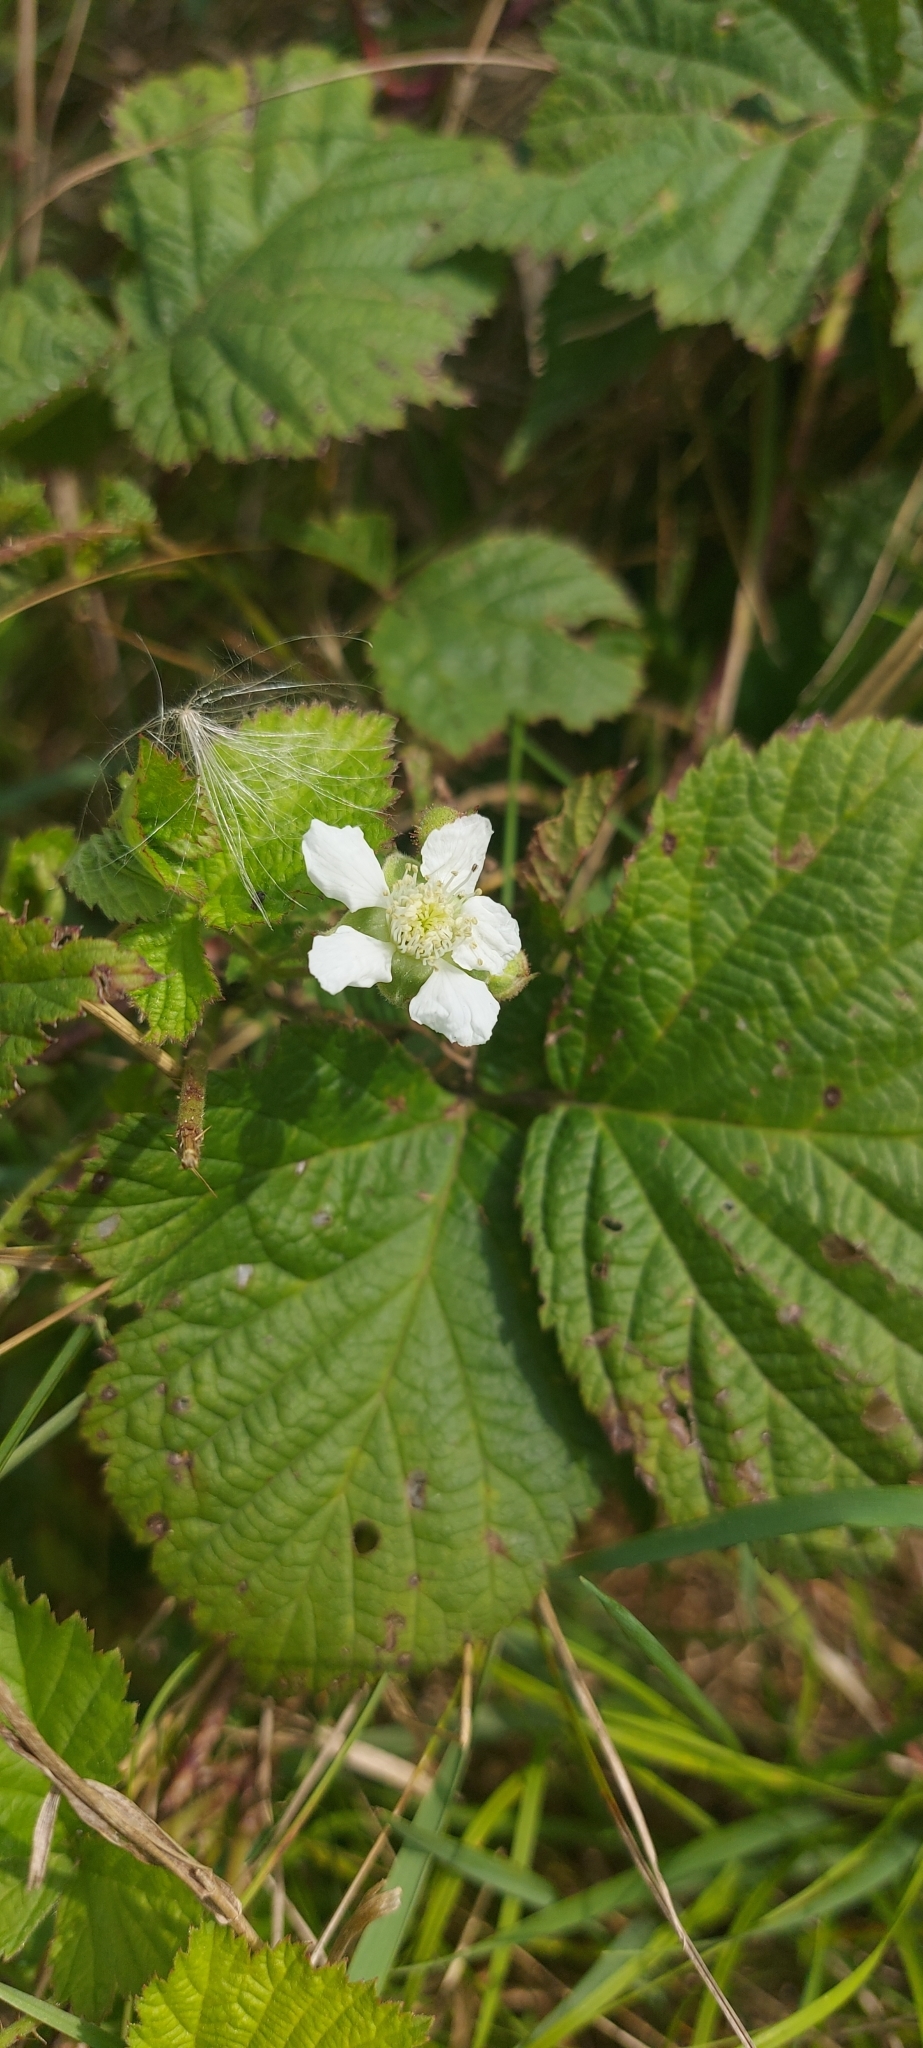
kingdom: Plantae
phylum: Tracheophyta
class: Magnoliopsida
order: Rosales
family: Rosaceae
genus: Rubus
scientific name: Rubus caesius
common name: Dewberry
